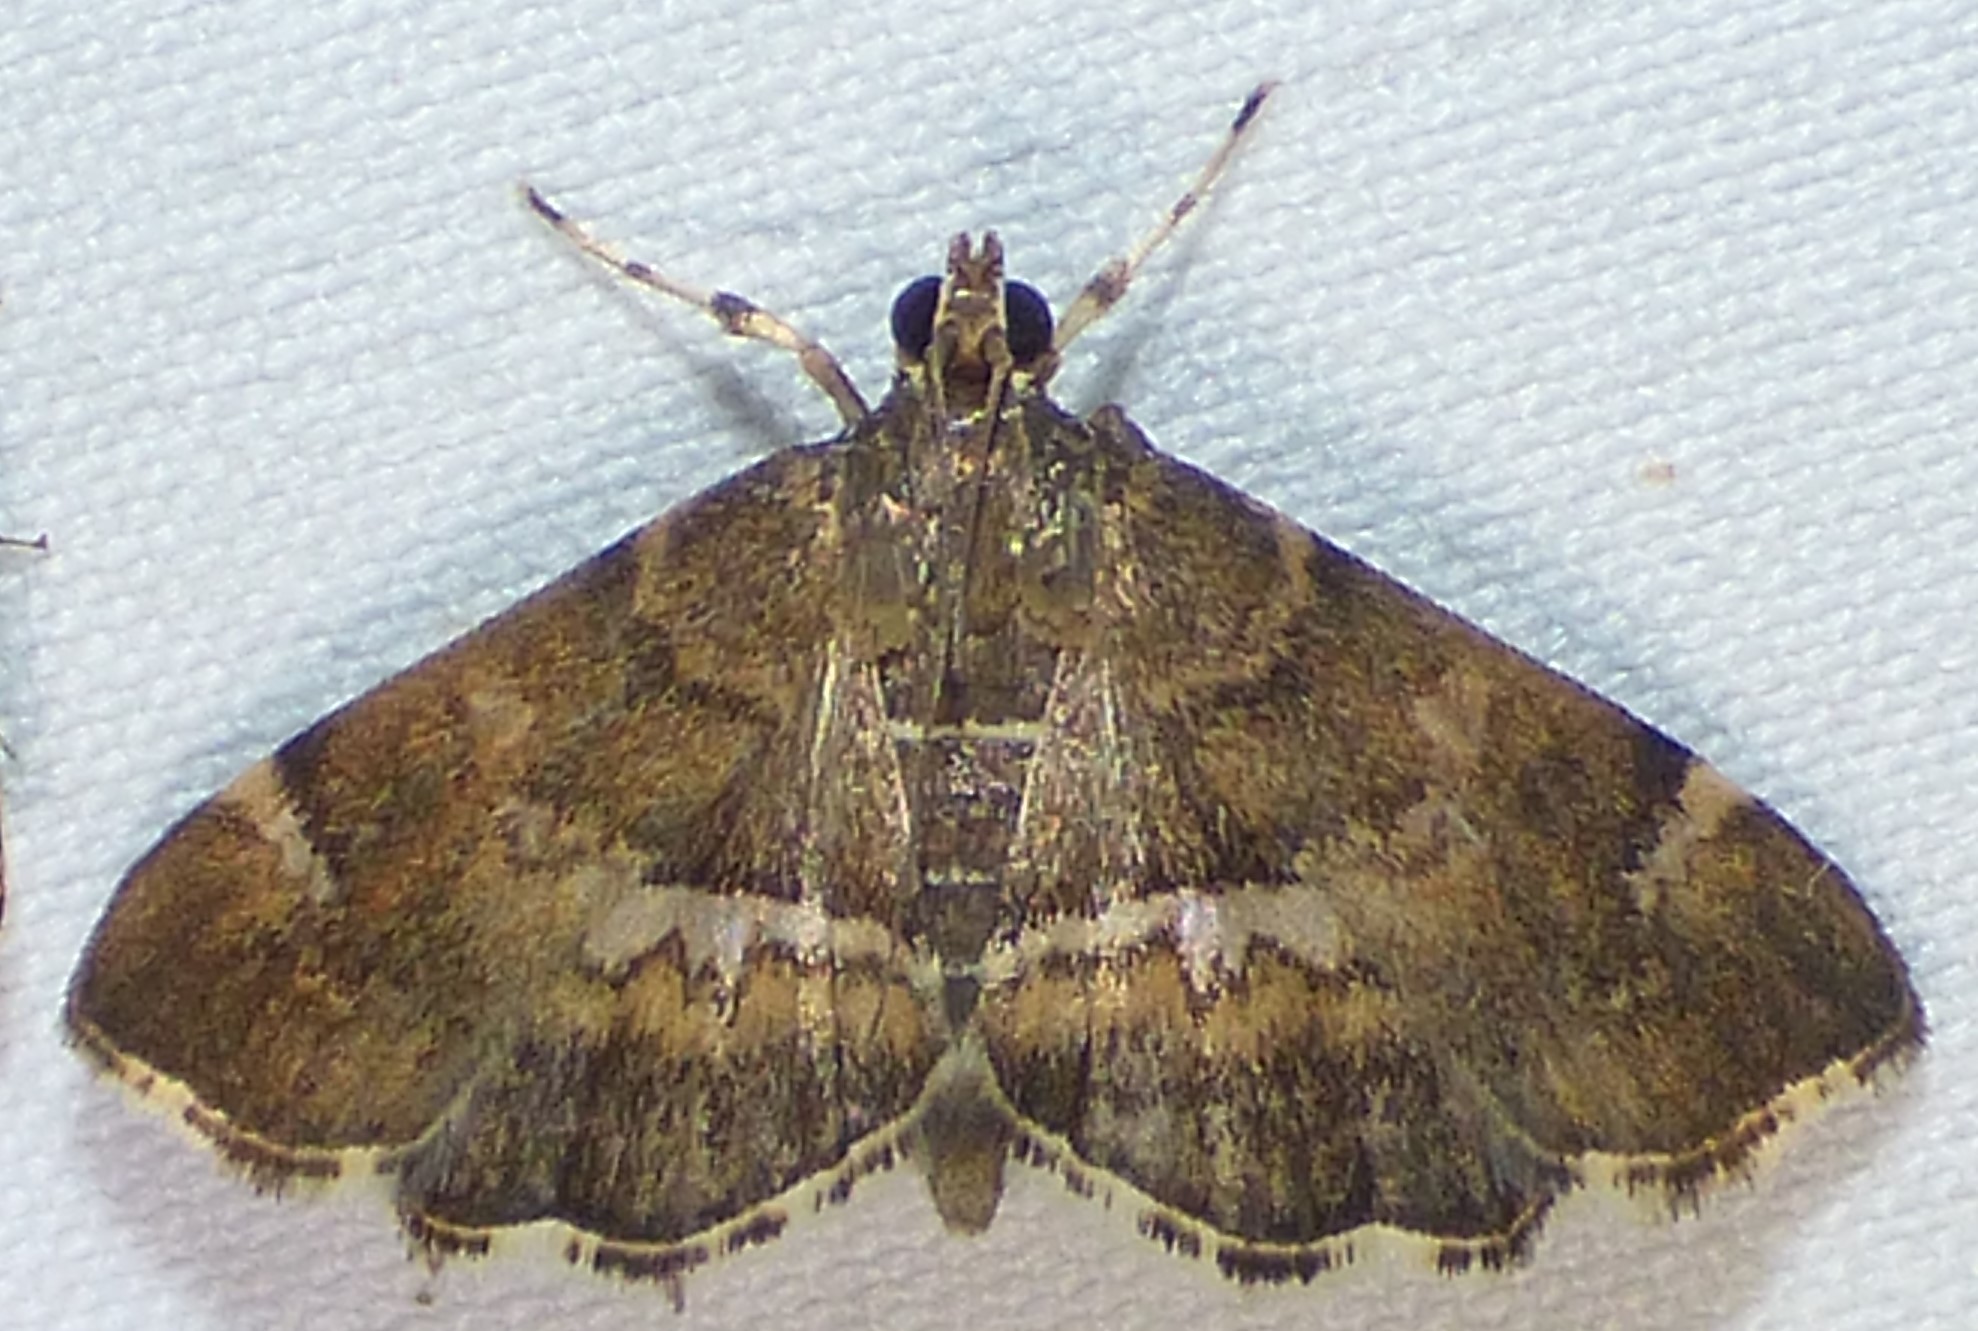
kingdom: Animalia
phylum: Arthropoda
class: Insecta
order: Lepidoptera
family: Crambidae
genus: Hymenia
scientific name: Hymenia perspectalis
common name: Spotted beet webworm
